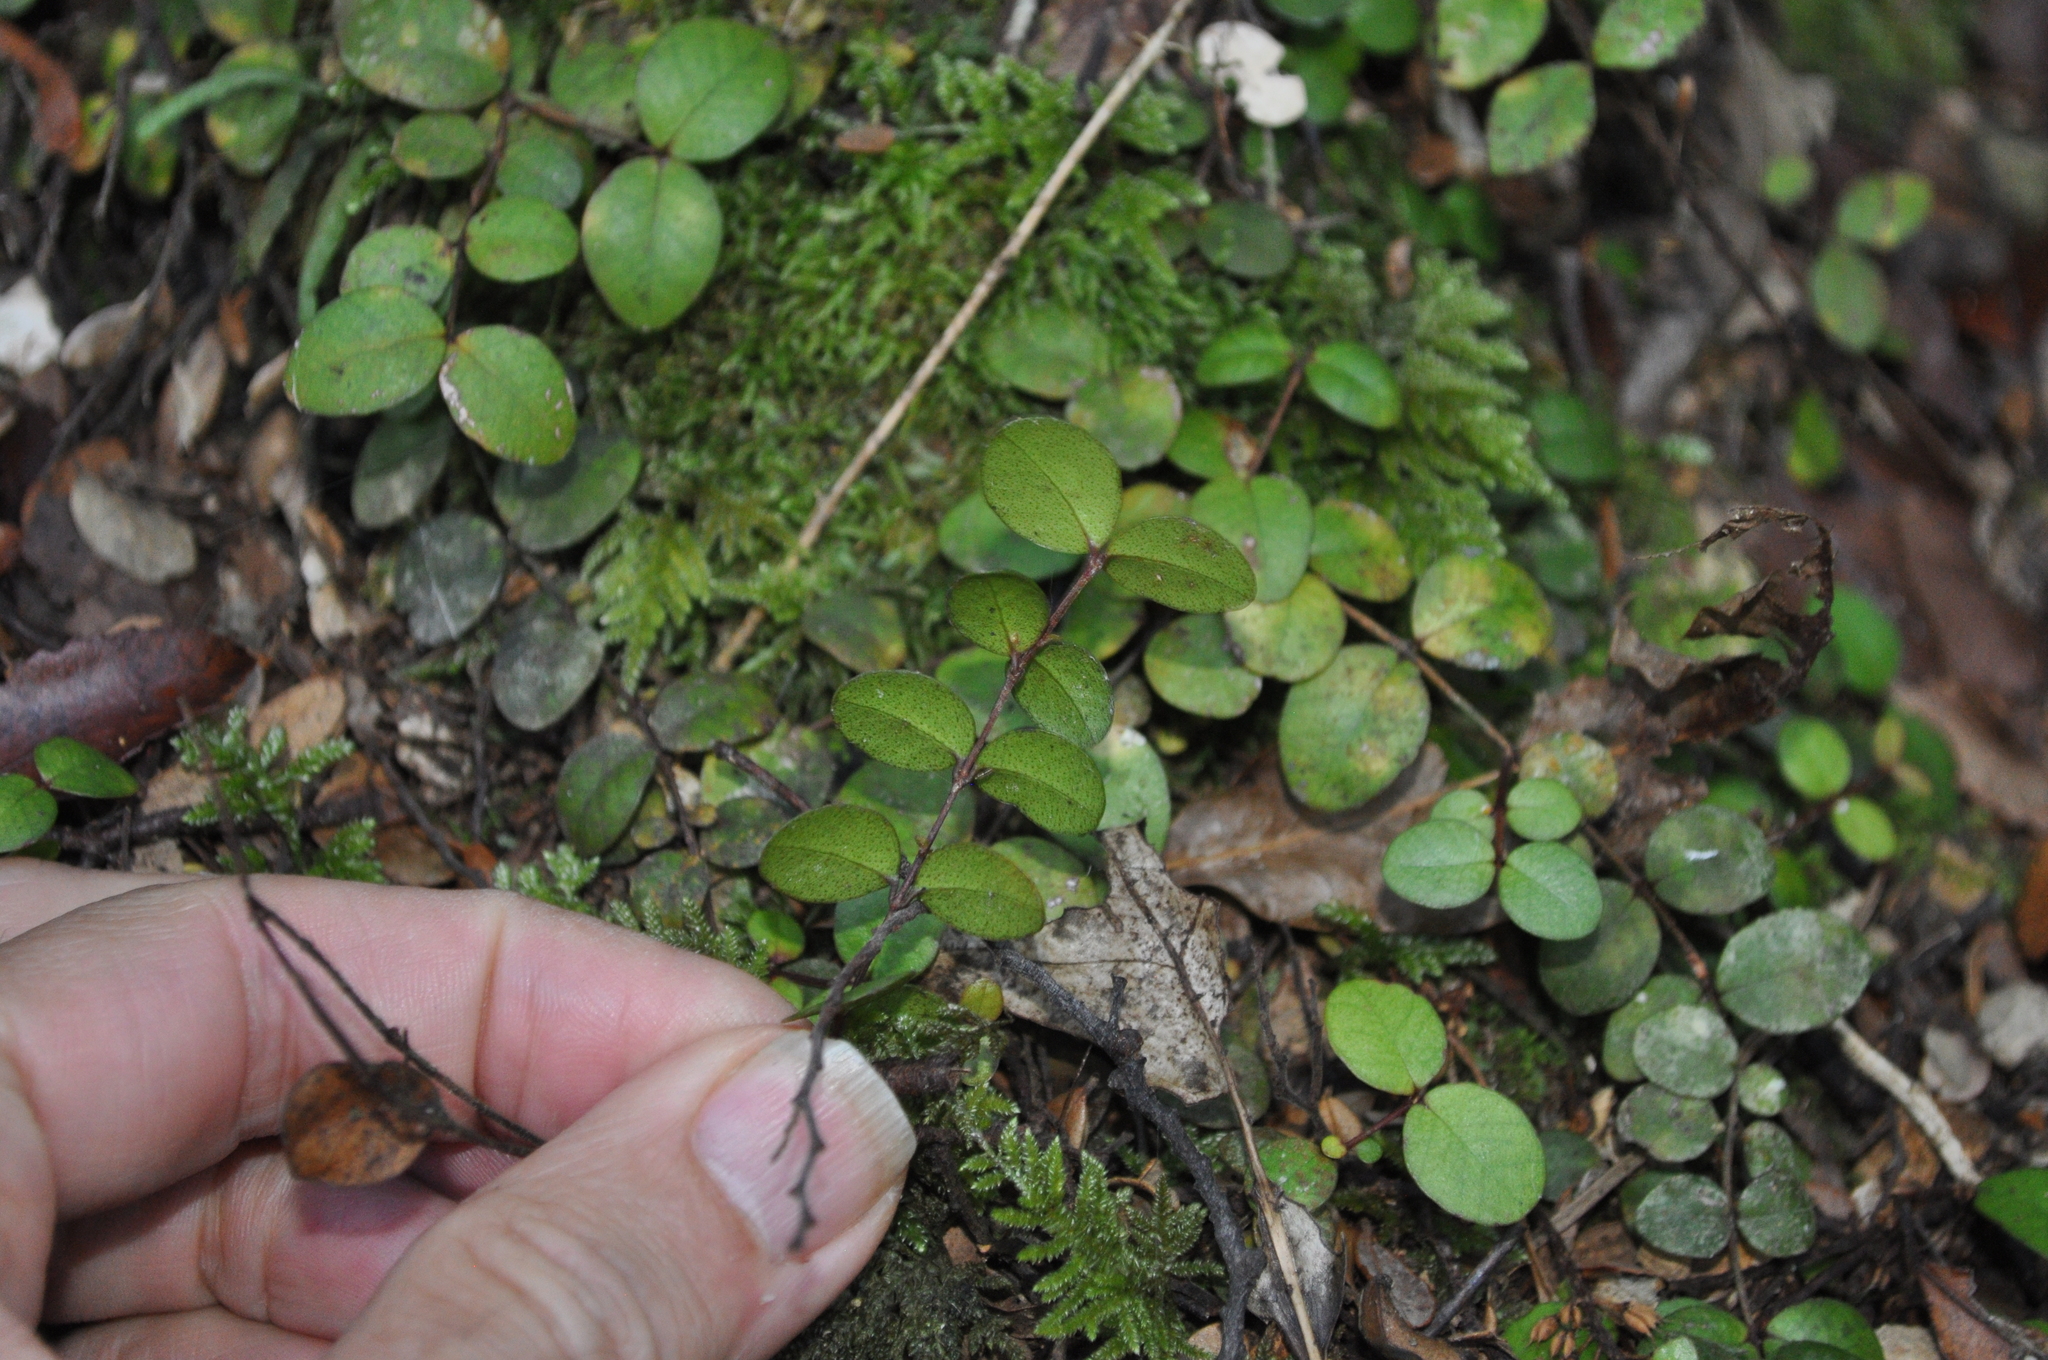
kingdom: Plantae
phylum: Tracheophyta
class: Magnoliopsida
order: Myrtales
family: Myrtaceae
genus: Metrosideros
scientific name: Metrosideros perforata
